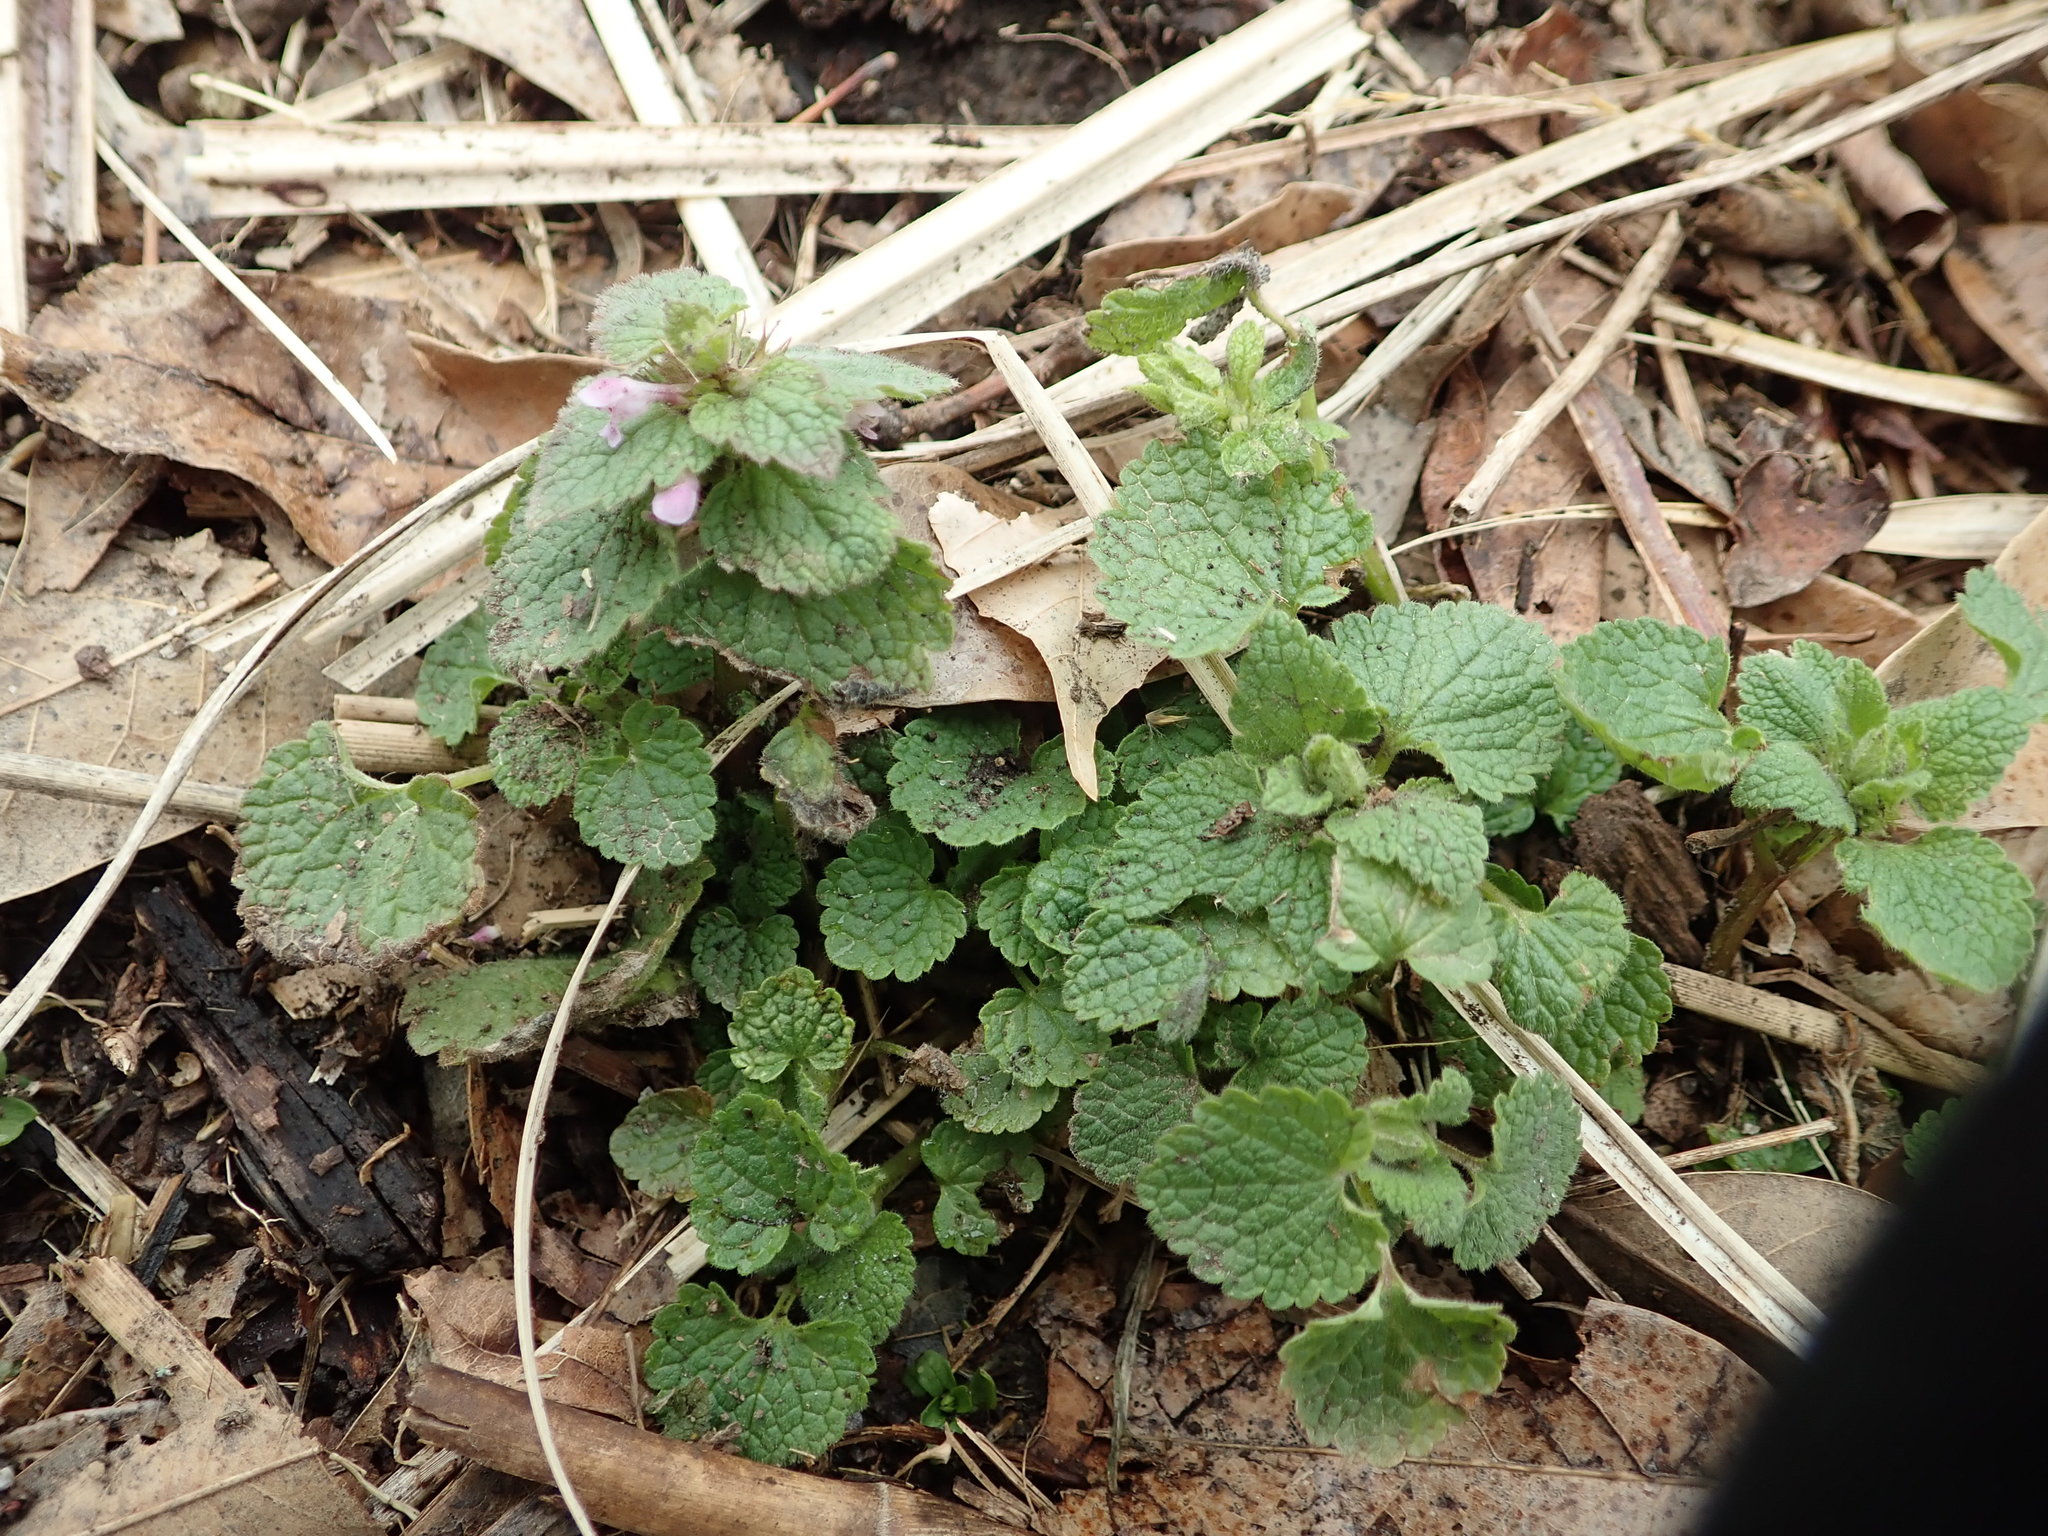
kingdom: Plantae
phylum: Tracheophyta
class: Magnoliopsida
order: Lamiales
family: Lamiaceae
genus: Lamium
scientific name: Lamium purpureum
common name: Red dead-nettle
